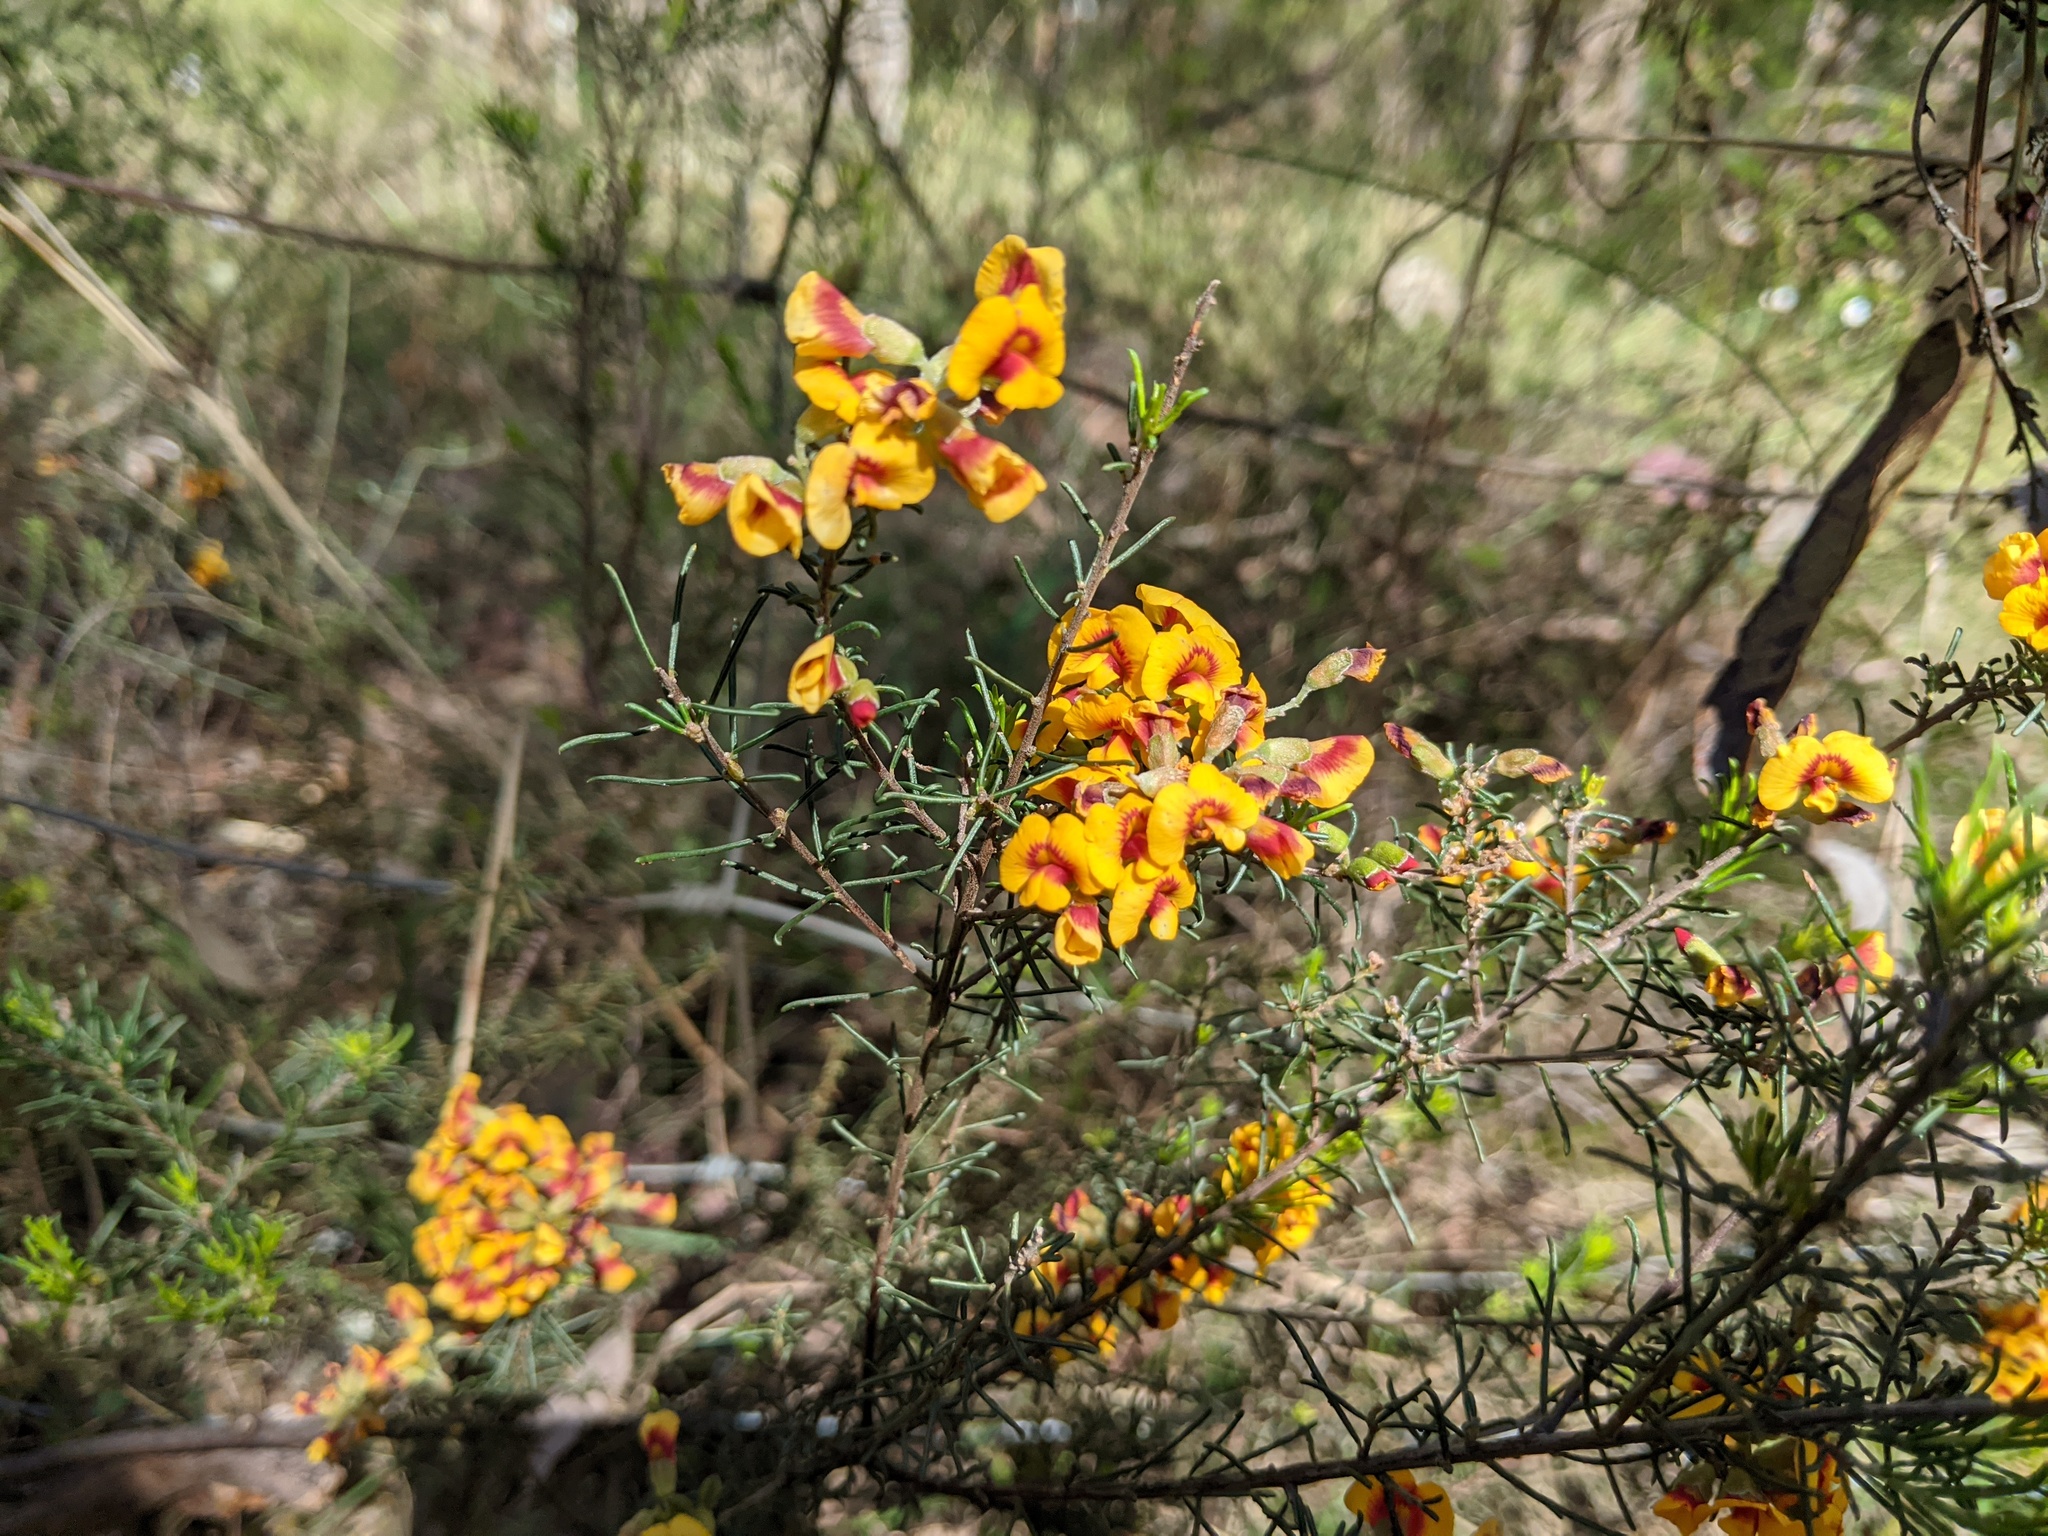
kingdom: Plantae
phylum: Tracheophyta
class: Magnoliopsida
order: Fabales
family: Fabaceae
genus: Dillwynia
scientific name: Dillwynia cinerascens
